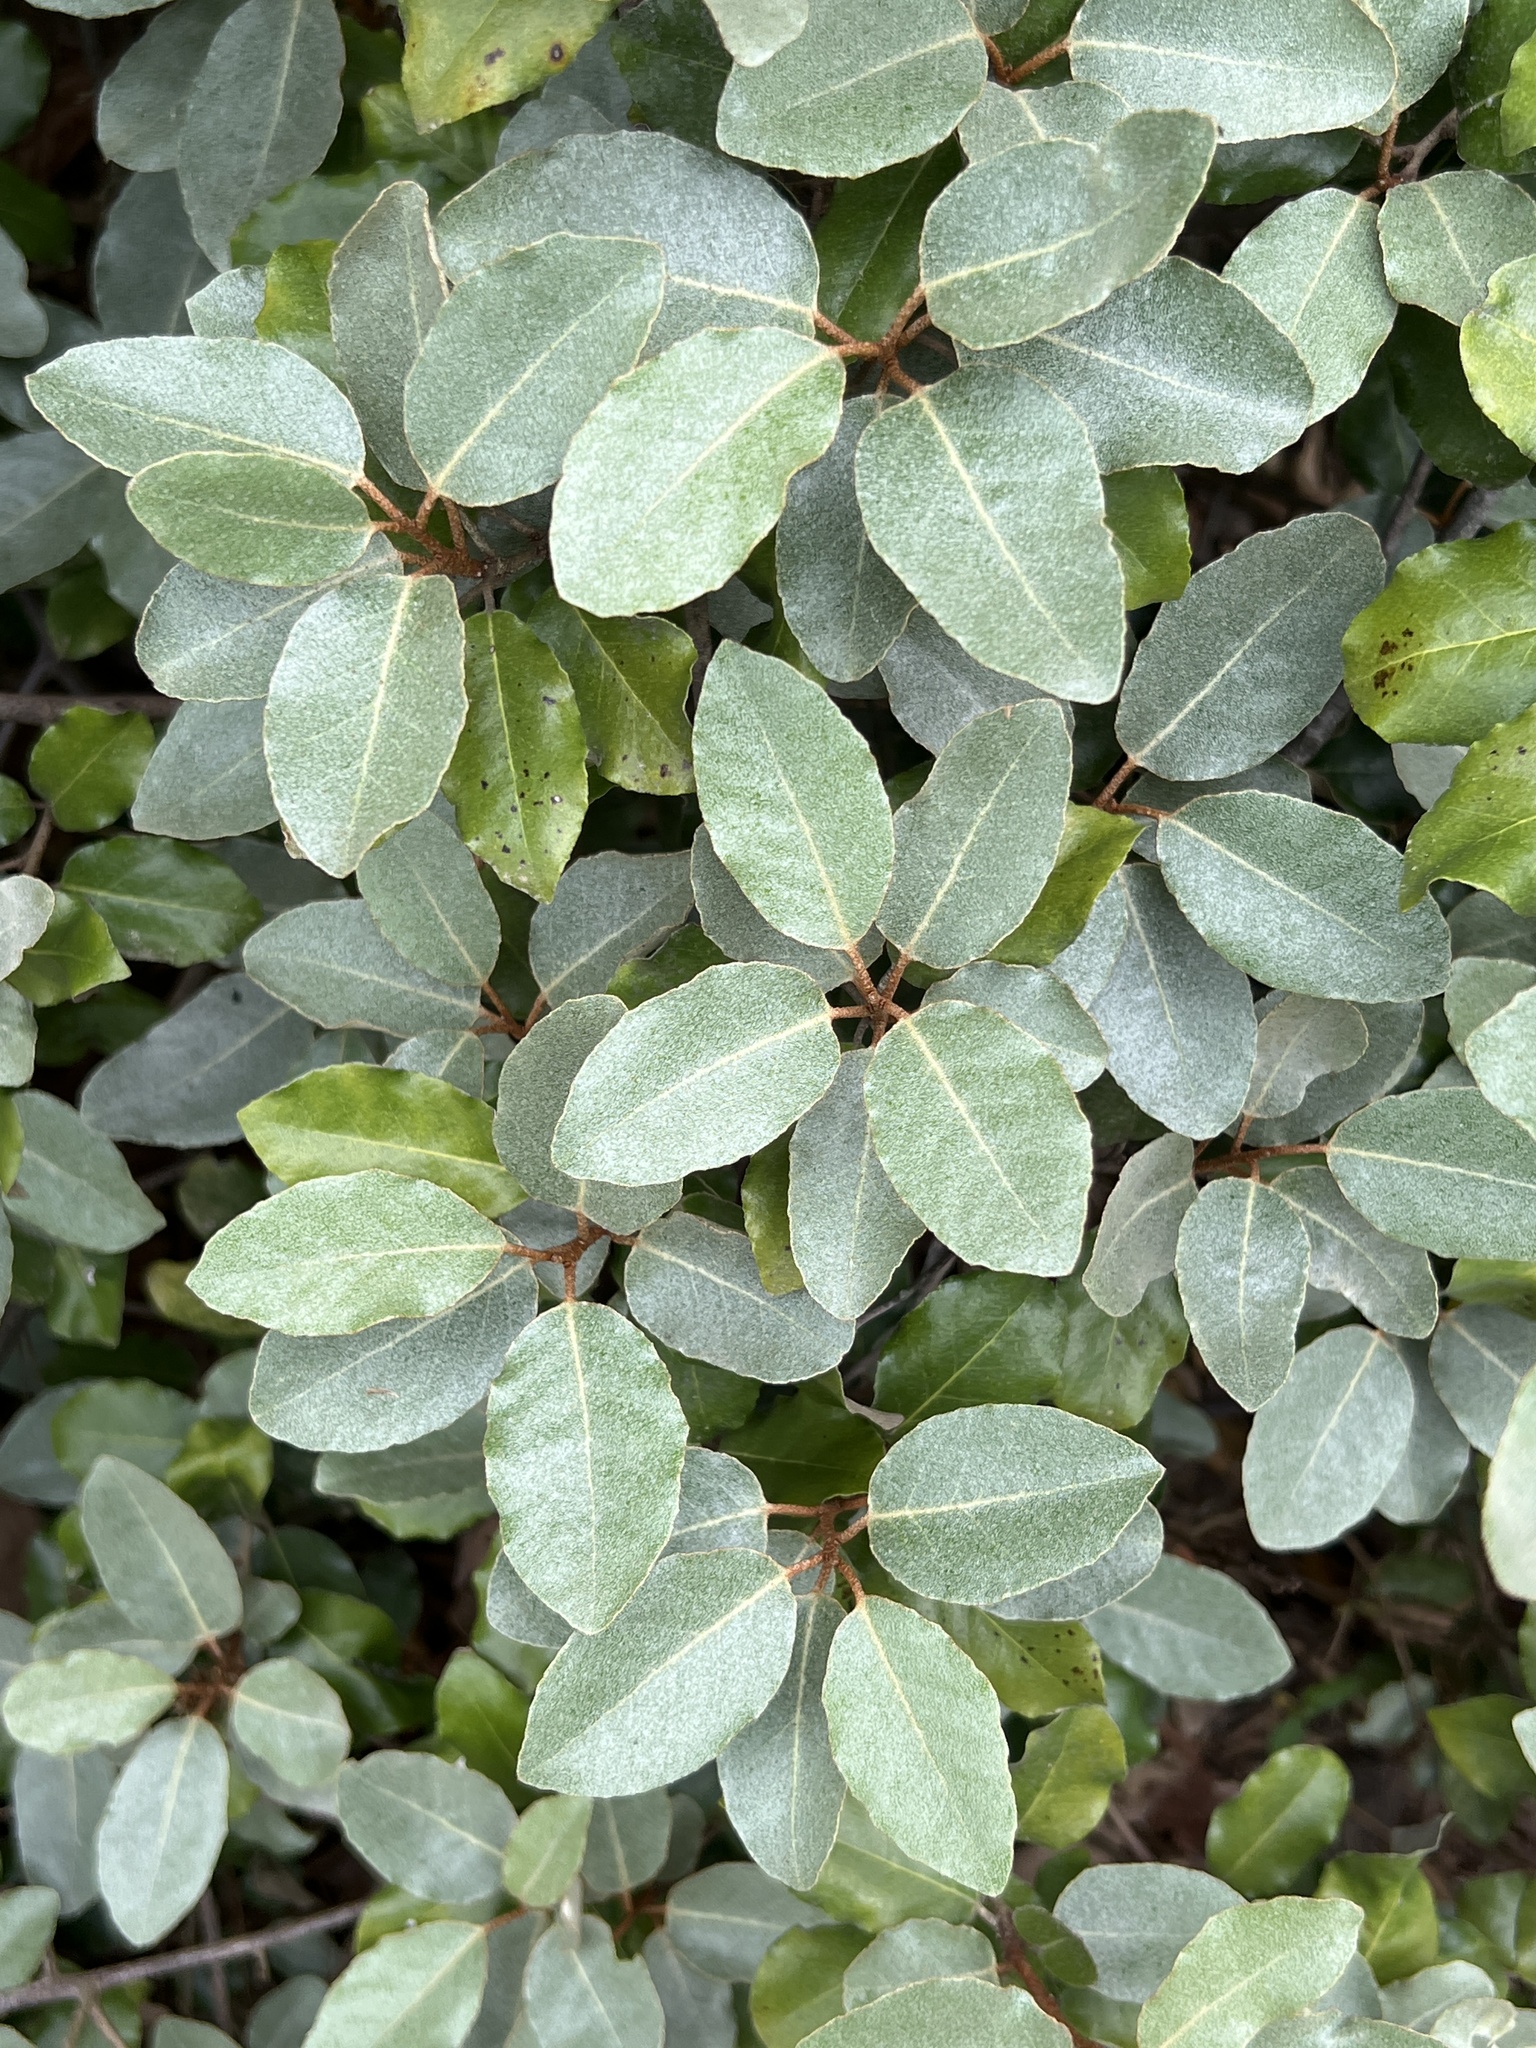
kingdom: Plantae
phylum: Tracheophyta
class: Magnoliopsida
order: Rosales
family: Elaeagnaceae
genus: Elaeagnus
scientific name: Elaeagnus pungens
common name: Spiny oleaster
